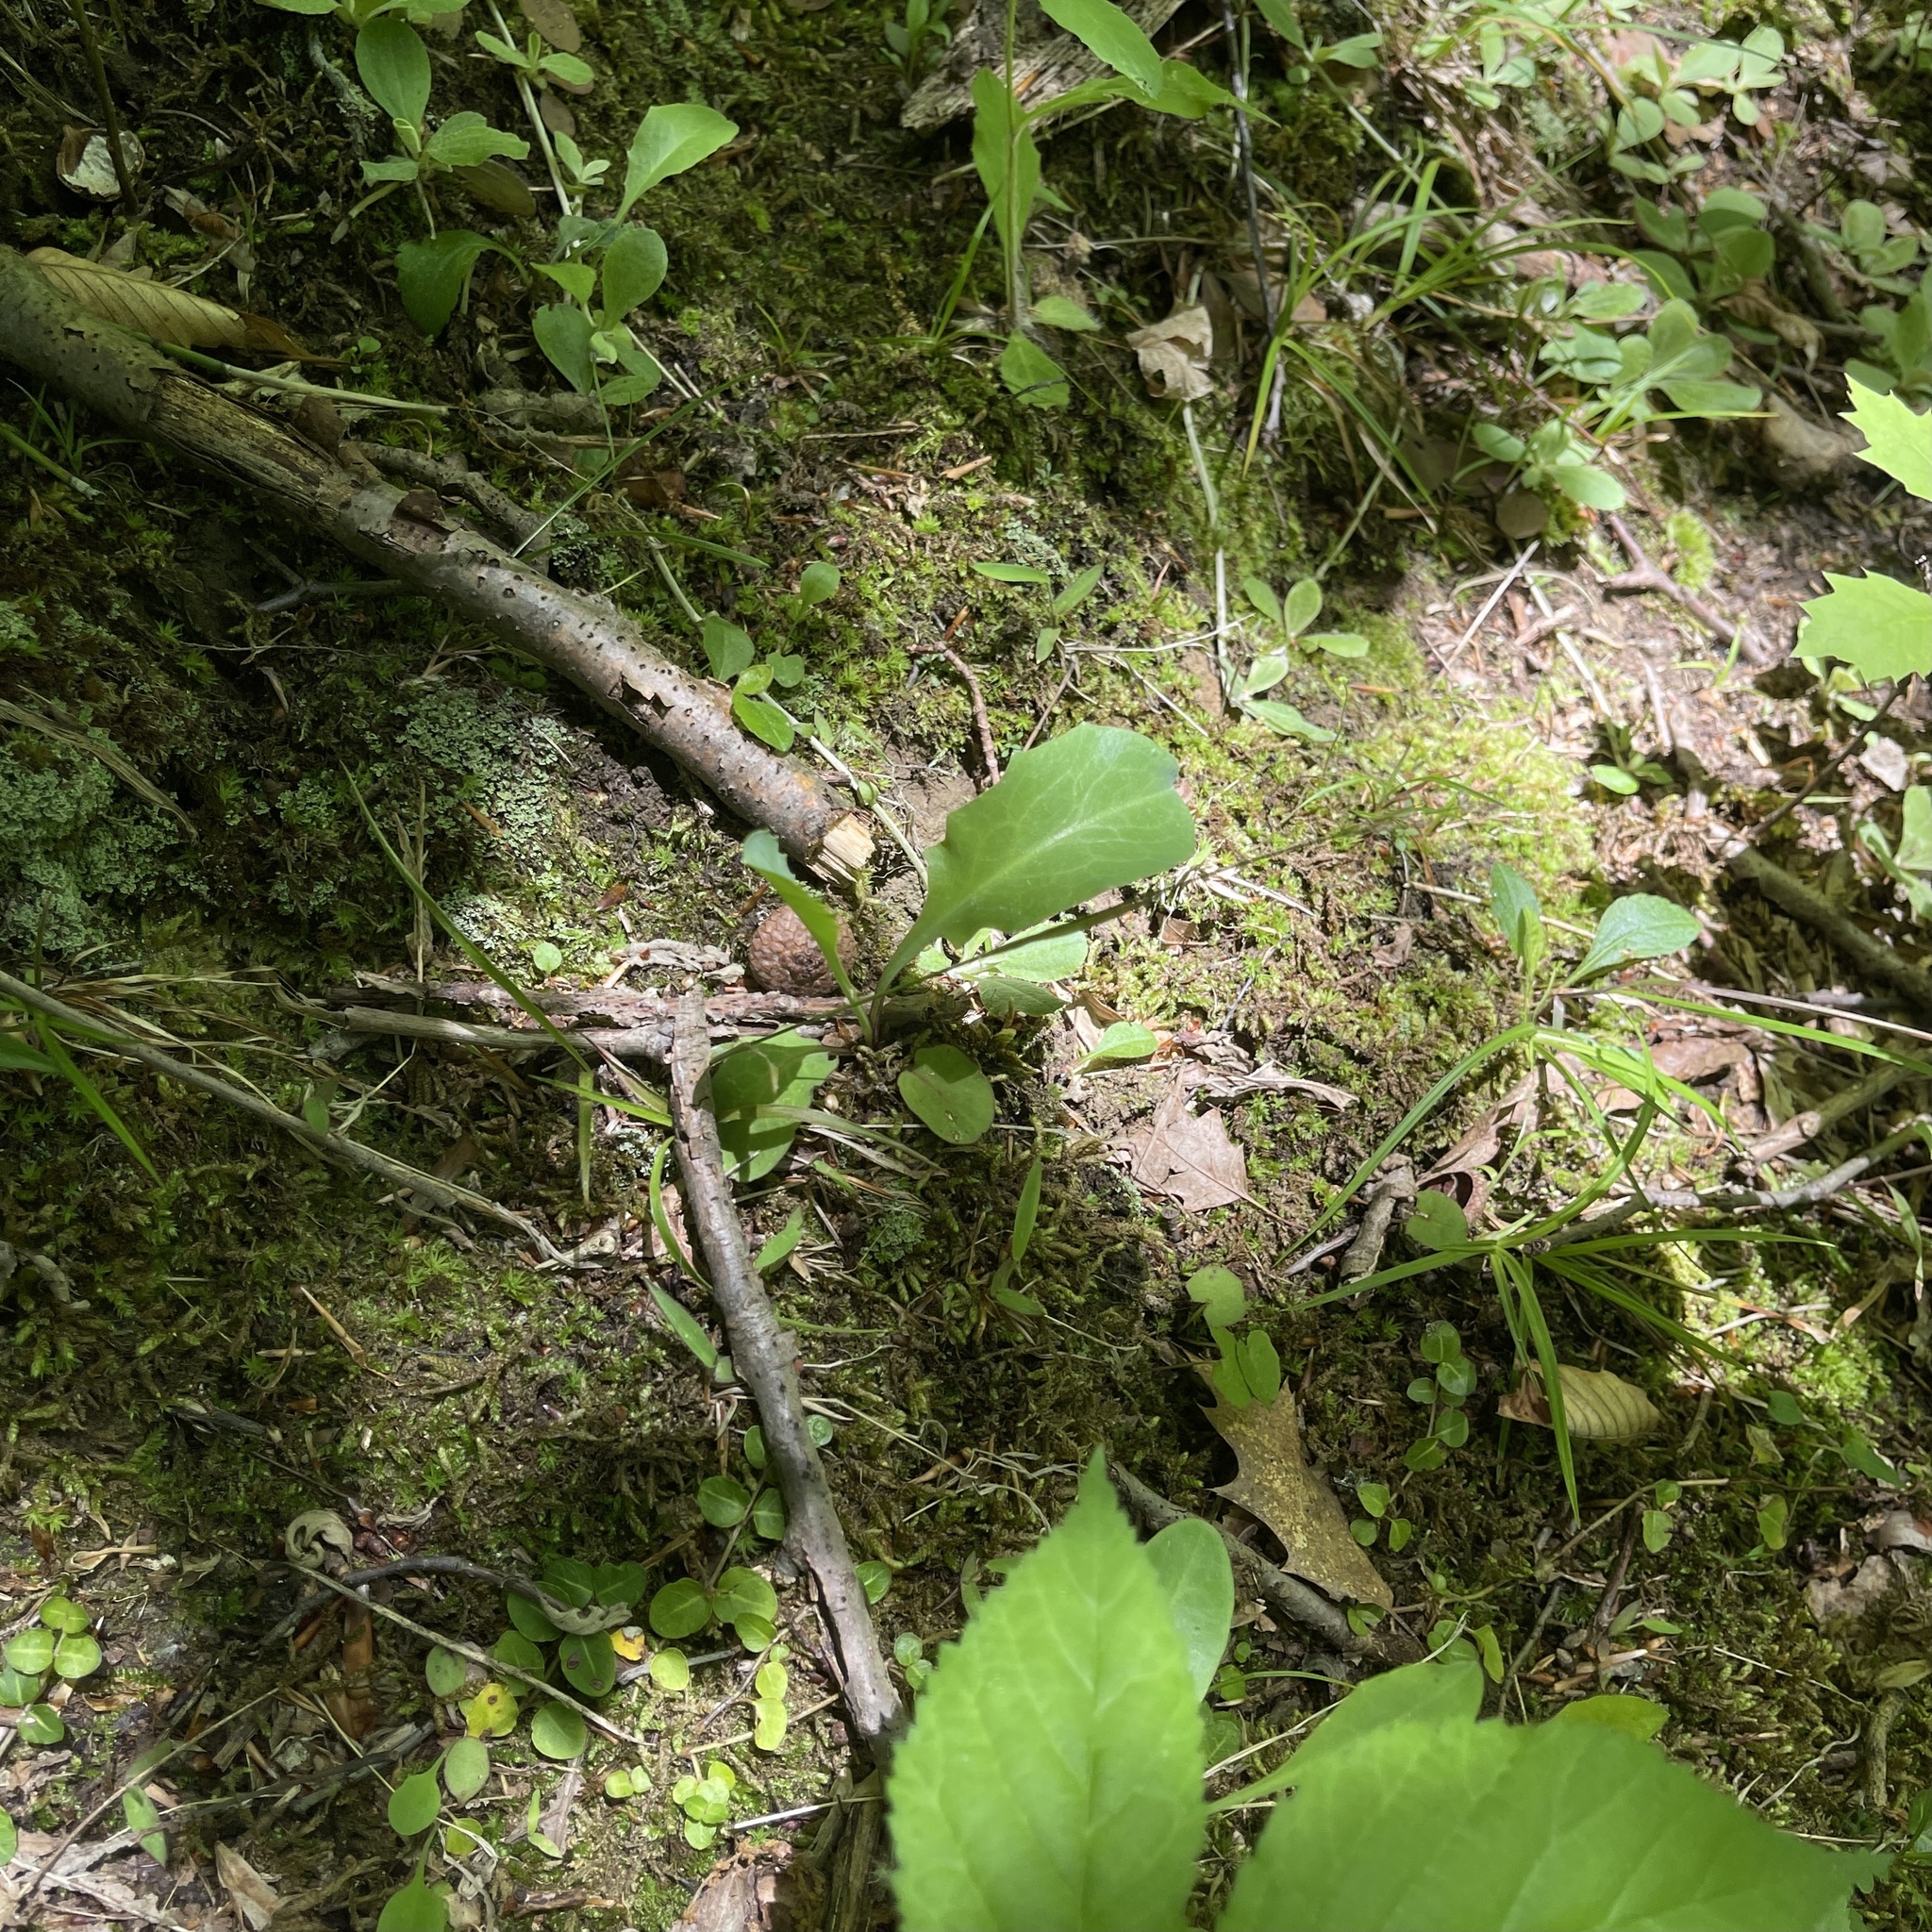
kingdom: Plantae
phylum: Tracheophyta
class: Magnoliopsida
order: Asterales
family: Asteraceae
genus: Krigia
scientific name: Krigia biflora
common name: Orange dwarf-dandelion
